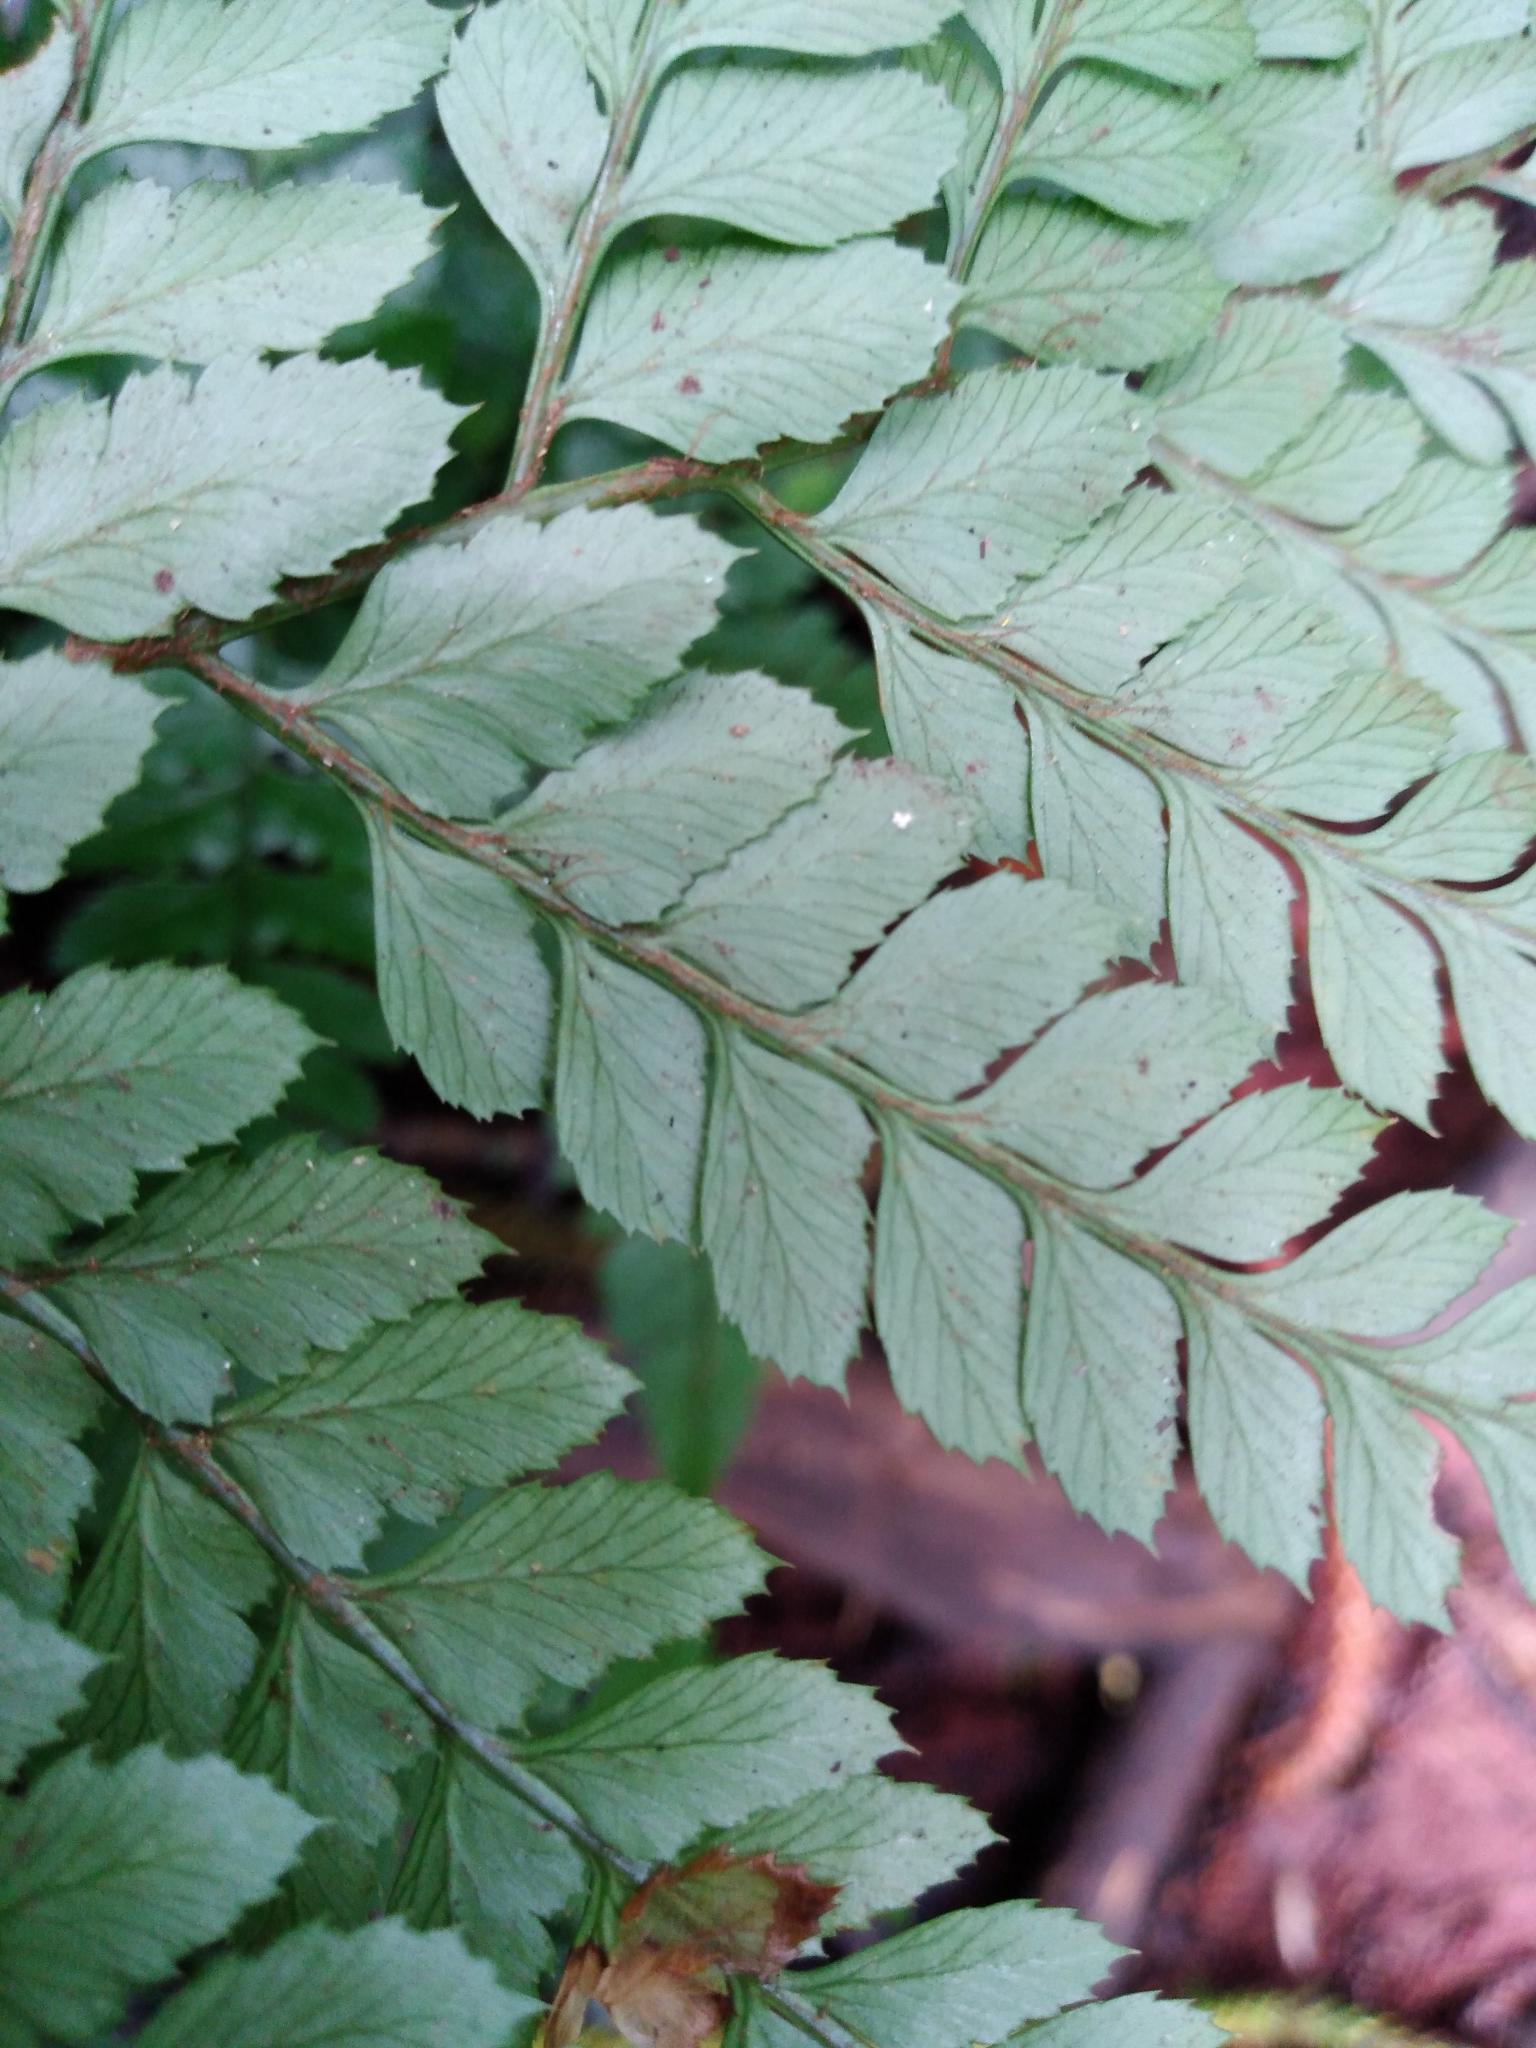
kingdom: Plantae
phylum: Tracheophyta
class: Polypodiopsida
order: Polypodiales
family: Dryopteridaceae
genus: Arachniodes
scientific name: Arachniodes aristata
